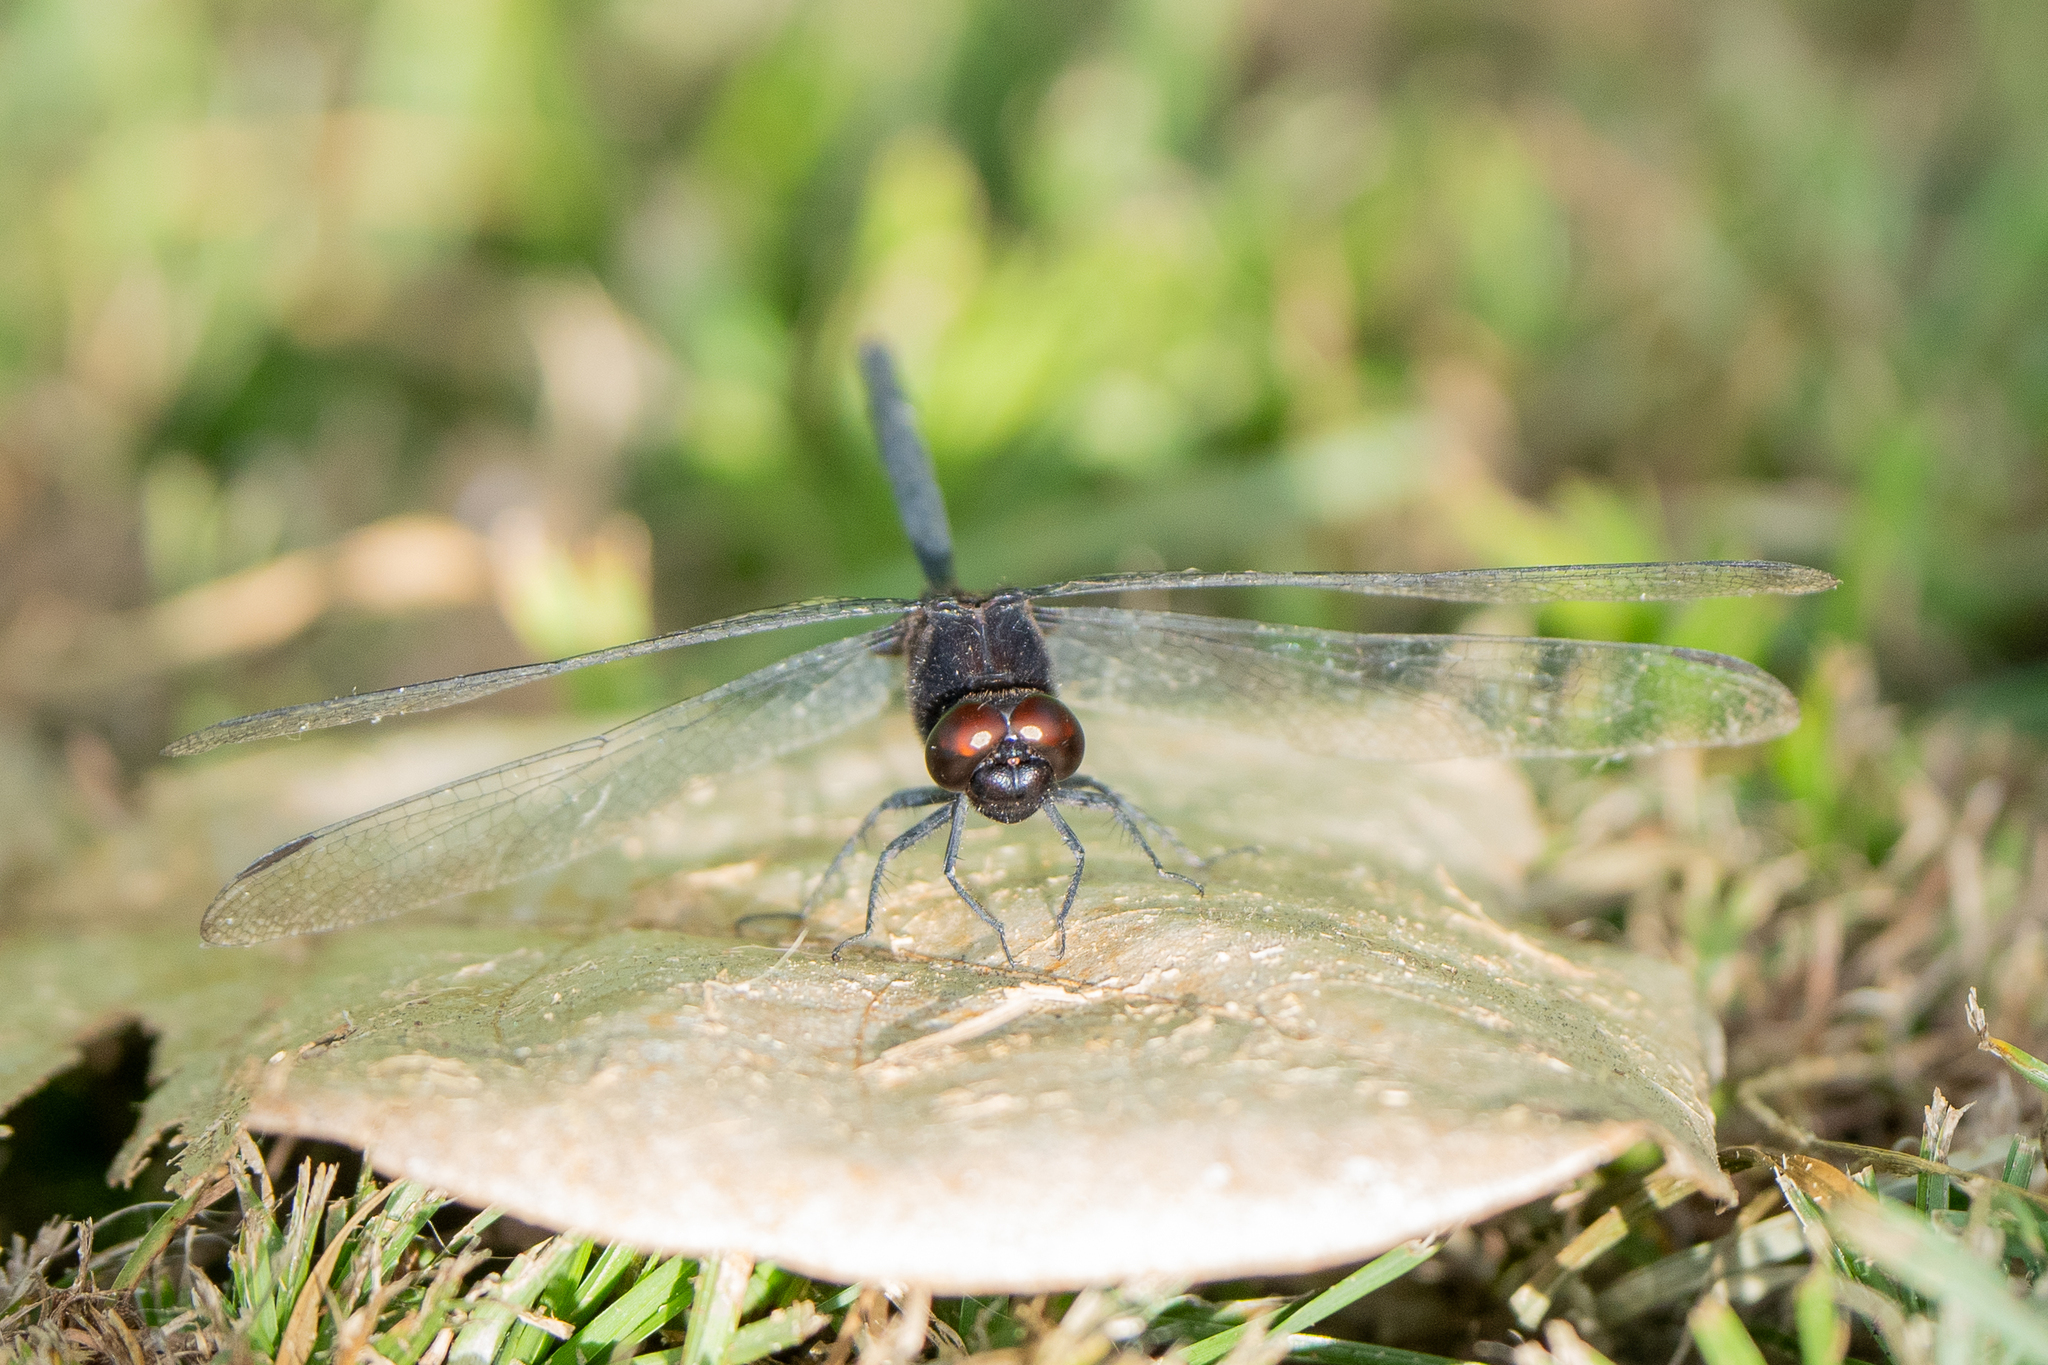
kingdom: Animalia
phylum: Arthropoda
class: Insecta
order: Odonata
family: Libellulidae
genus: Erythemis
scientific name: Erythemis plebeja
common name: Pin-tailed pondhawk
